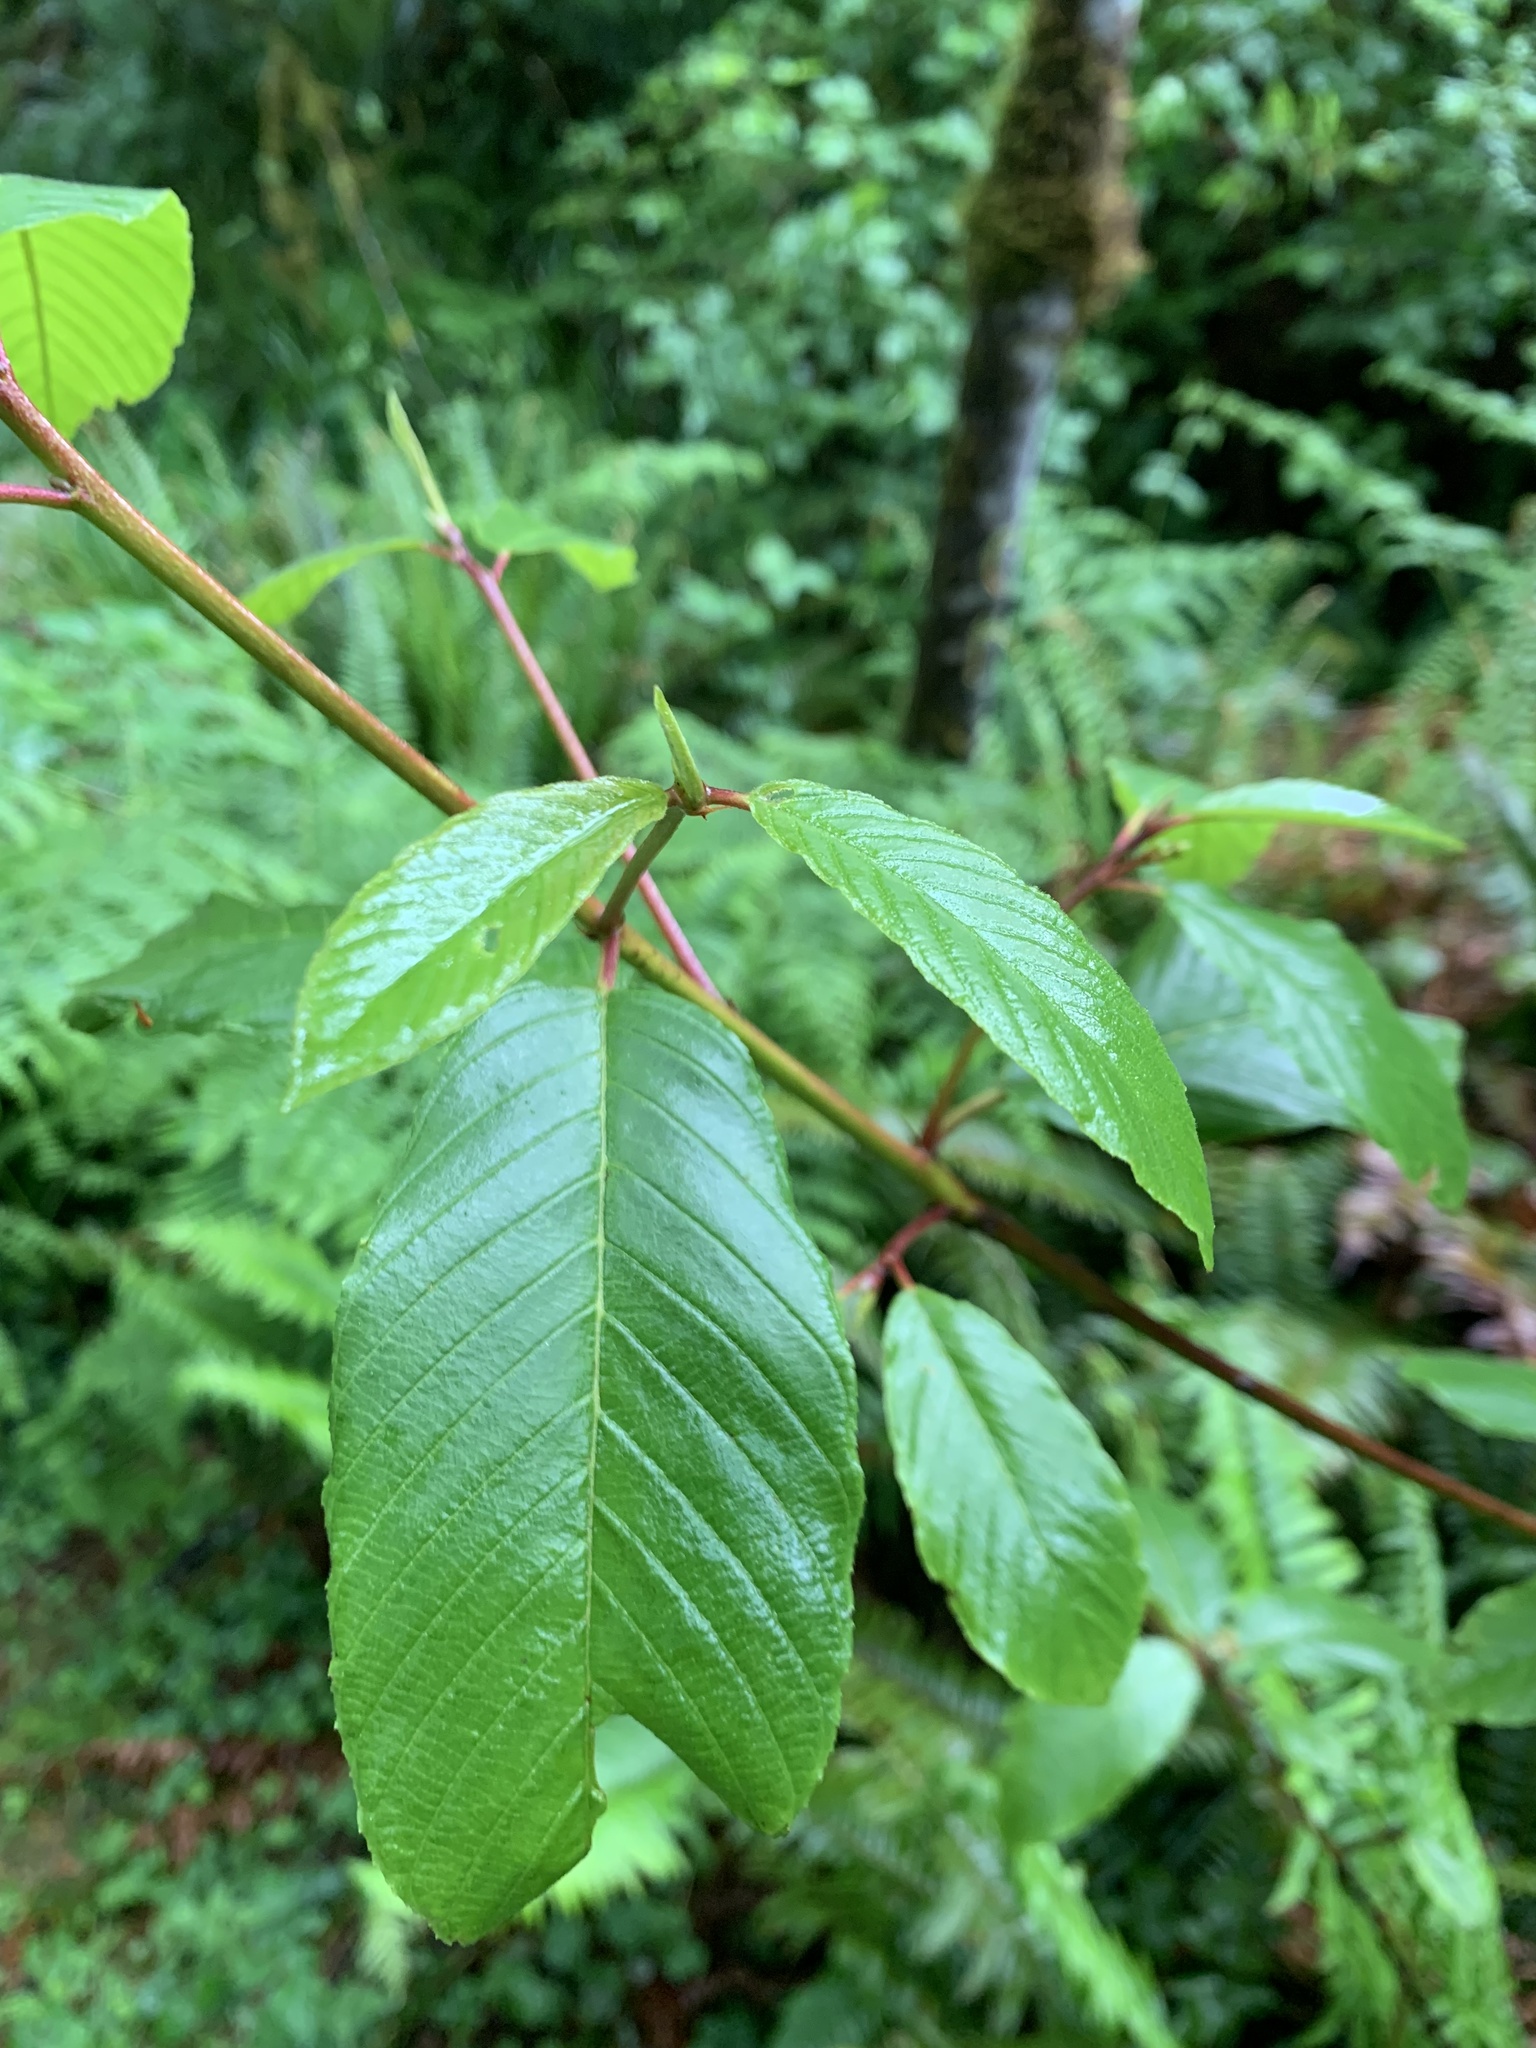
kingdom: Plantae
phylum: Tracheophyta
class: Magnoliopsida
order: Rosales
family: Rhamnaceae
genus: Frangula
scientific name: Frangula purshiana
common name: Cascara buckthorn
